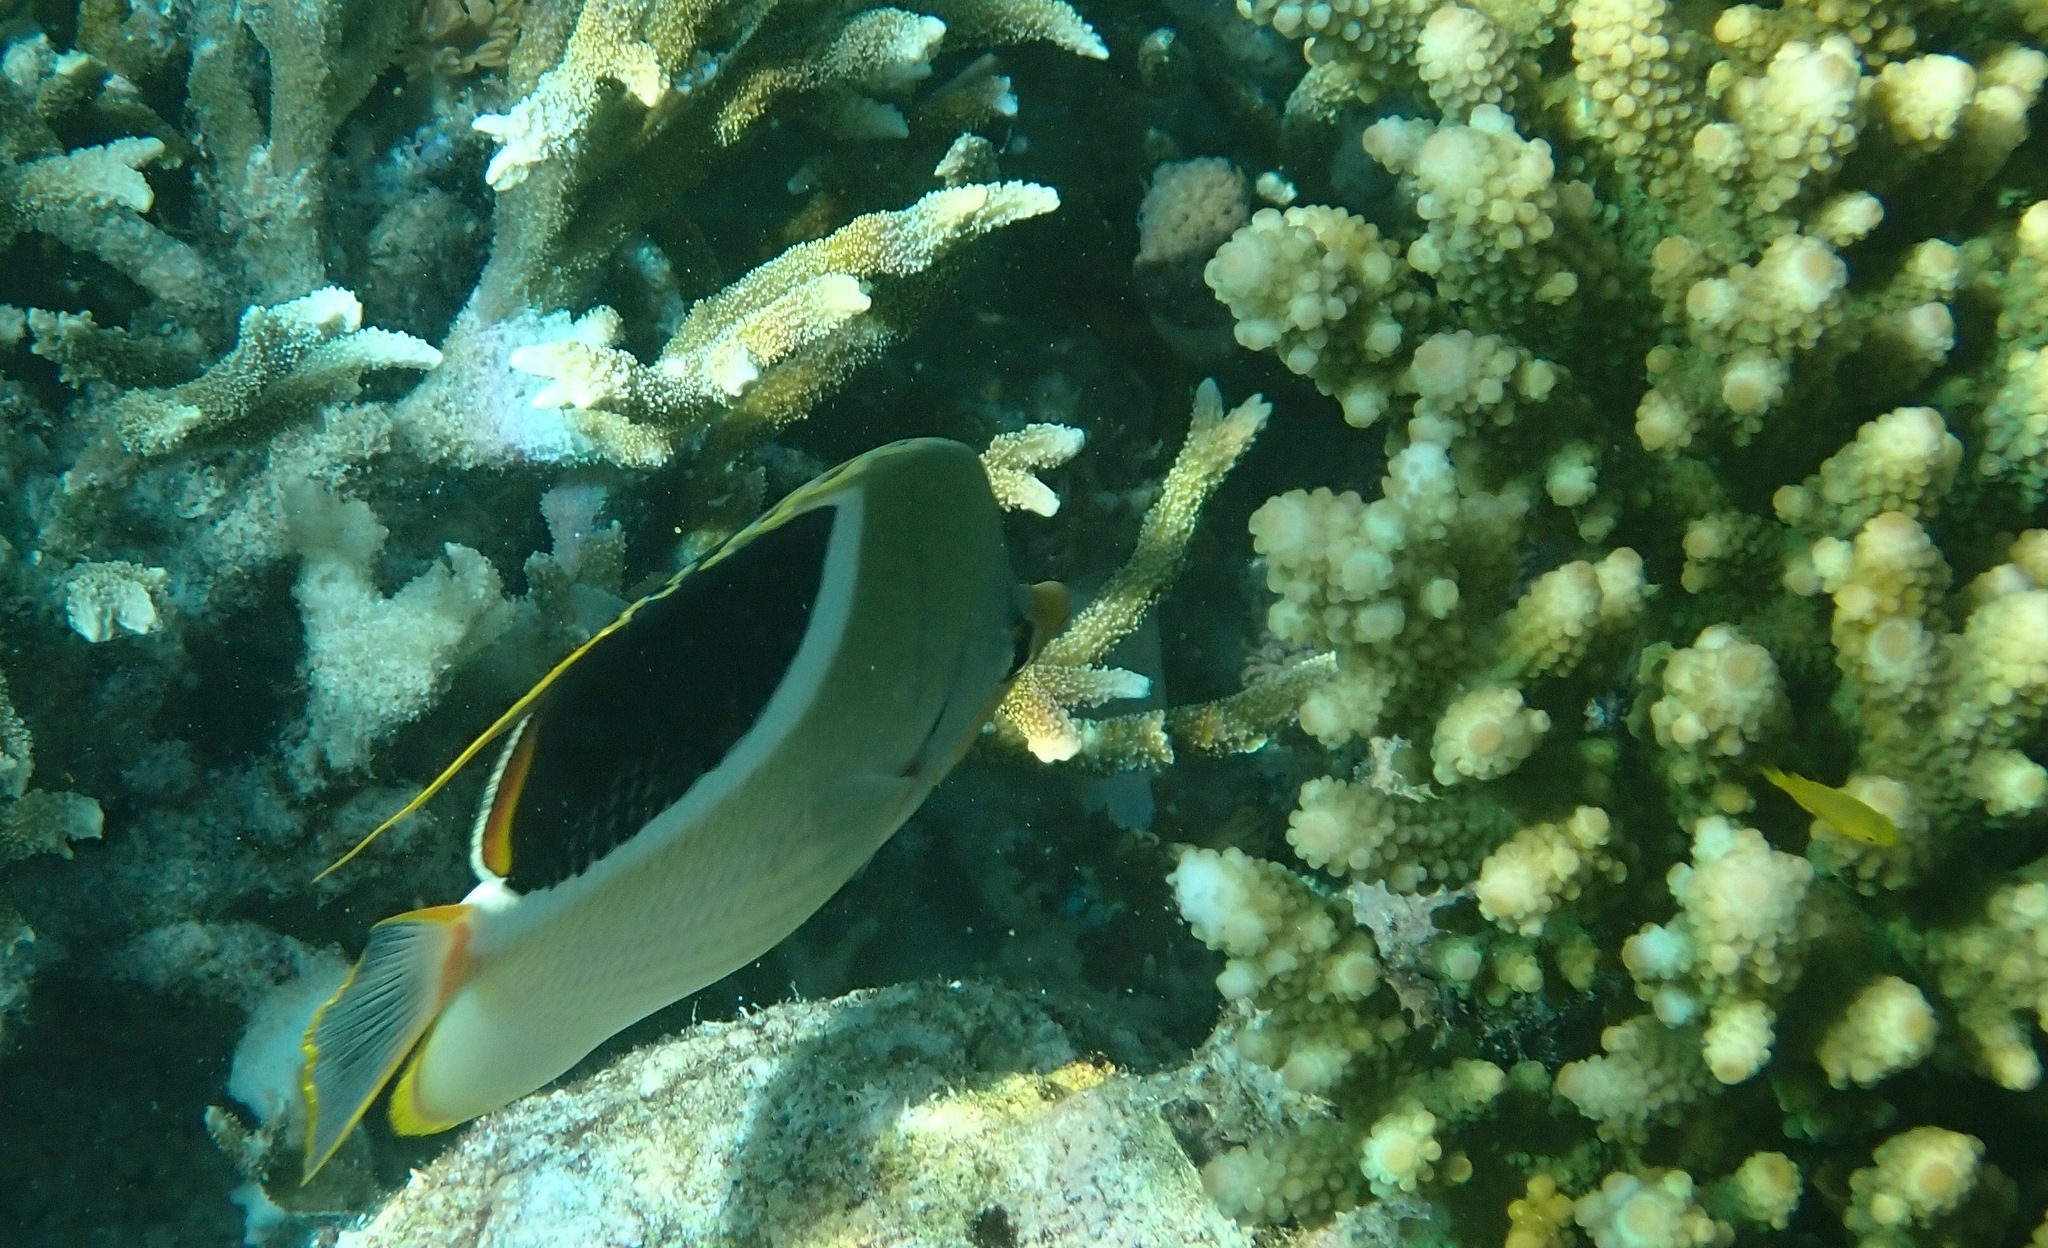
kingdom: Animalia
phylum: Chordata
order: Perciformes
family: Chaetodontidae
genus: Chaetodon
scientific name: Chaetodon ephippium
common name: Saddled butterflyfish
